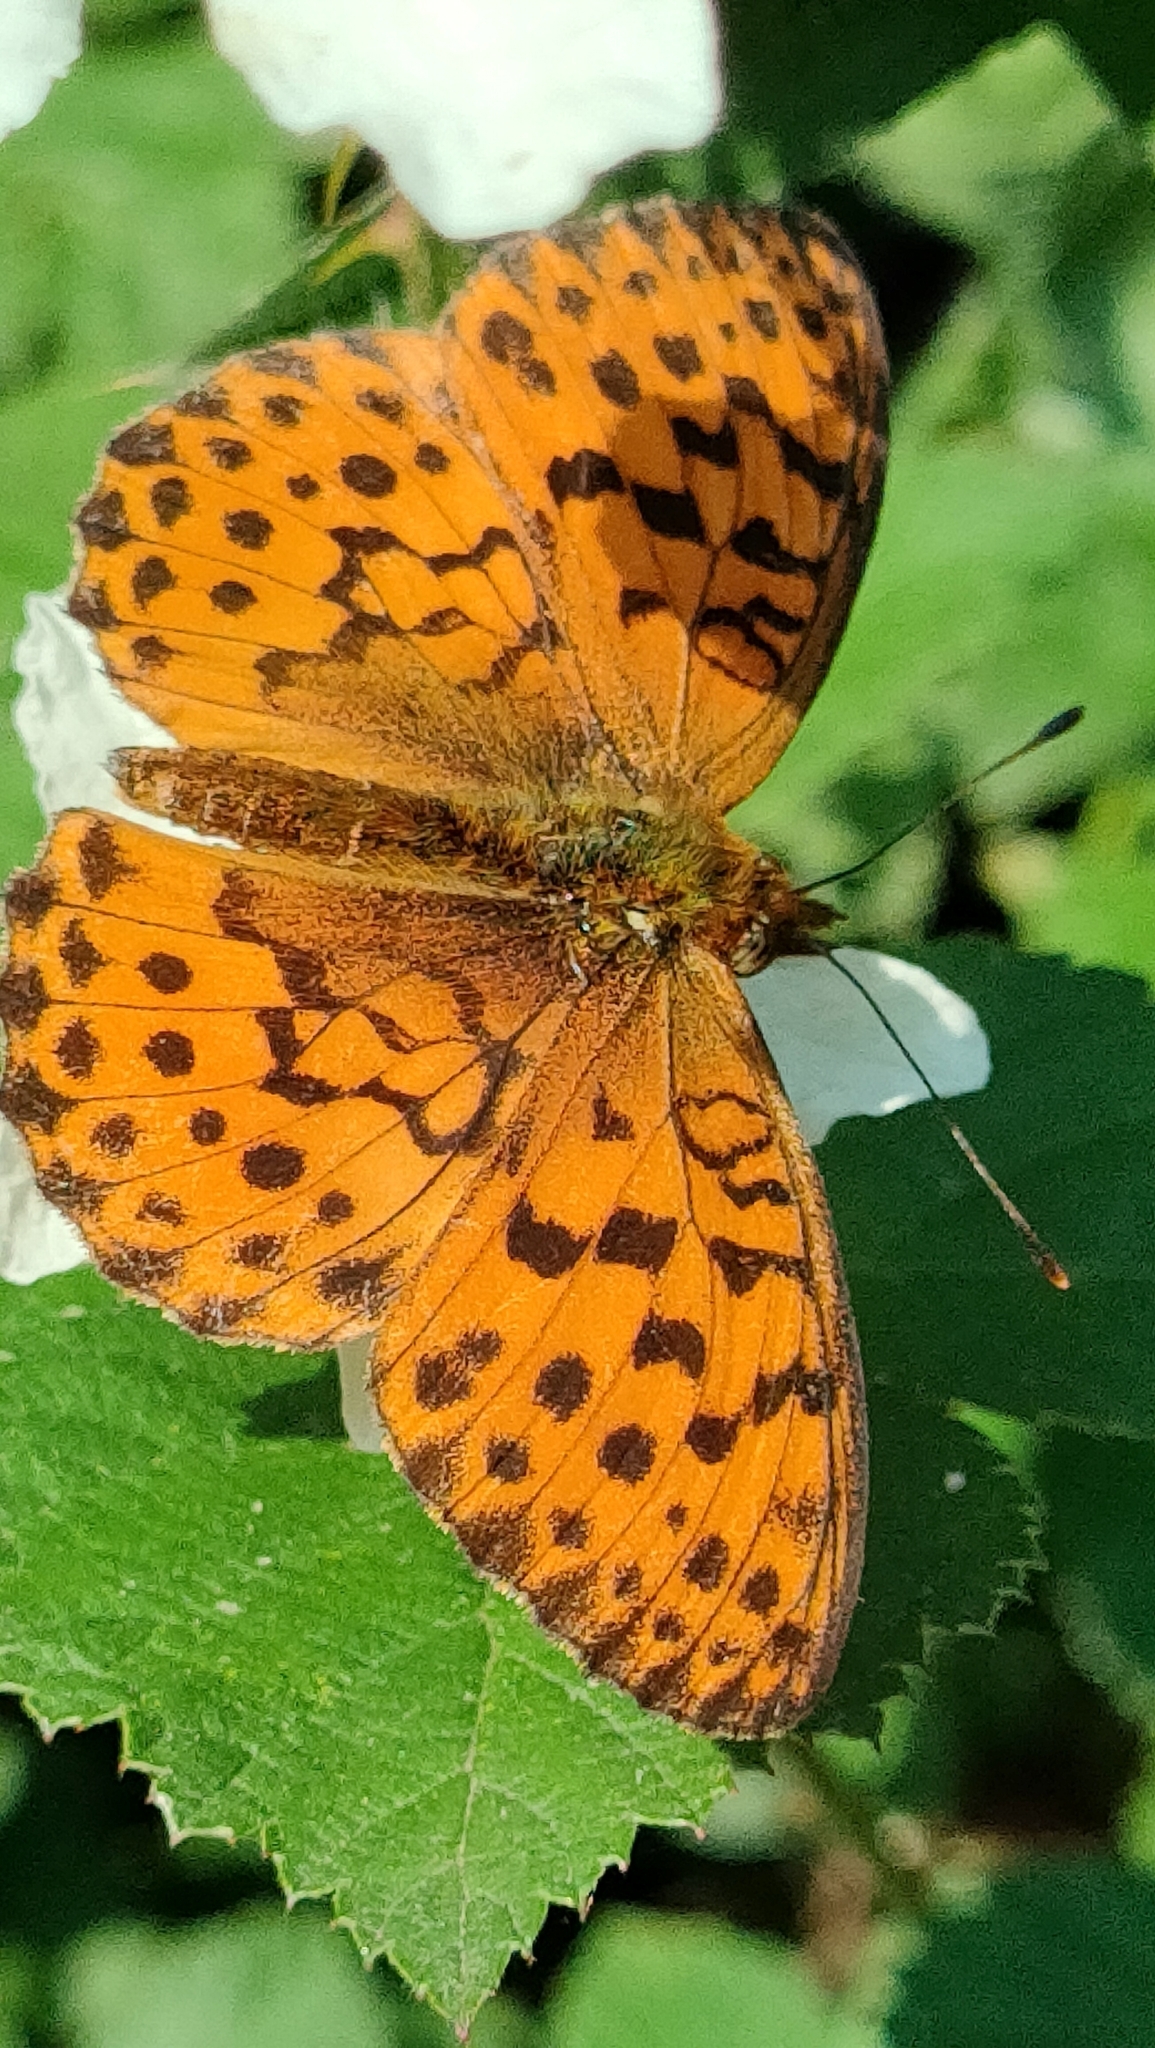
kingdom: Animalia
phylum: Arthropoda
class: Insecta
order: Lepidoptera
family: Nymphalidae
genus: Brenthis
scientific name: Brenthis daphne
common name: Marbled fritillary
